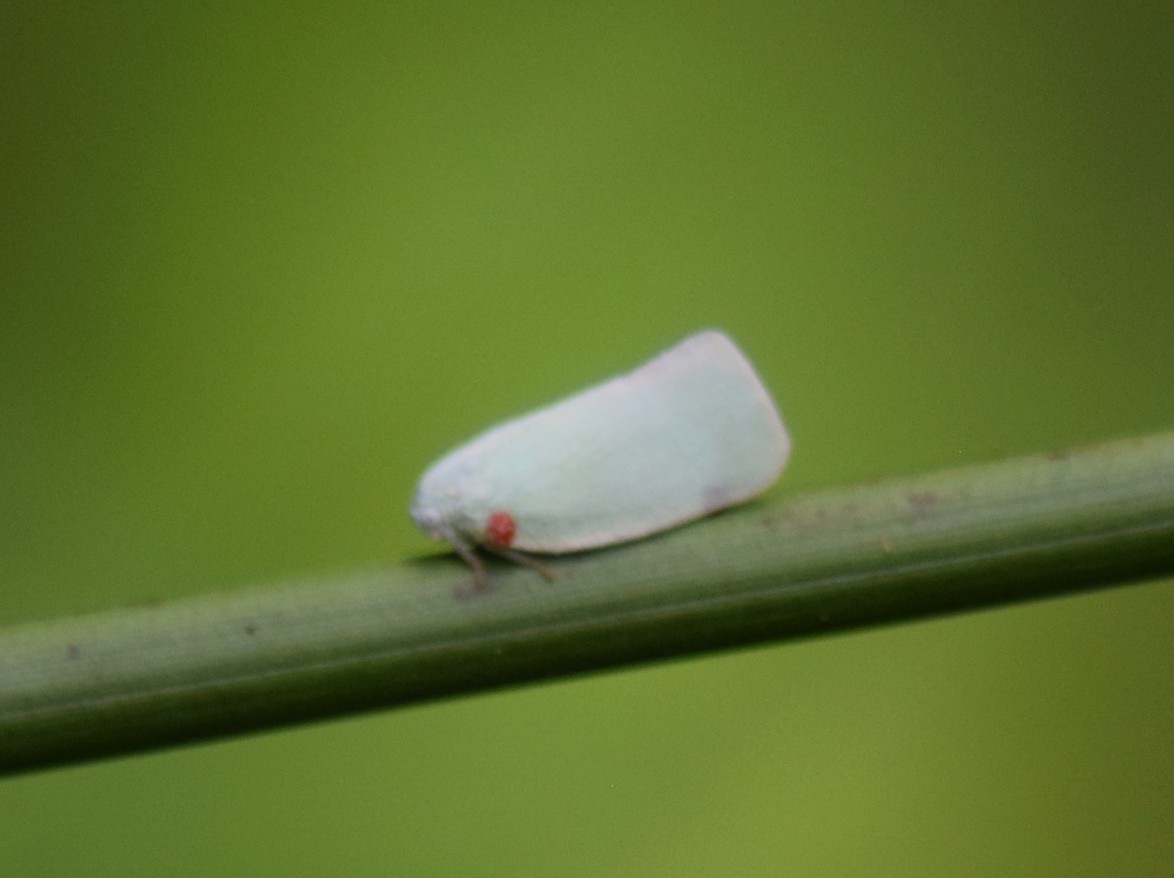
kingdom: Animalia
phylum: Arthropoda
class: Insecta
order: Hemiptera
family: Flatidae
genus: Flatormenis
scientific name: Flatormenis proxima
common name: Northern flatid planthopper
